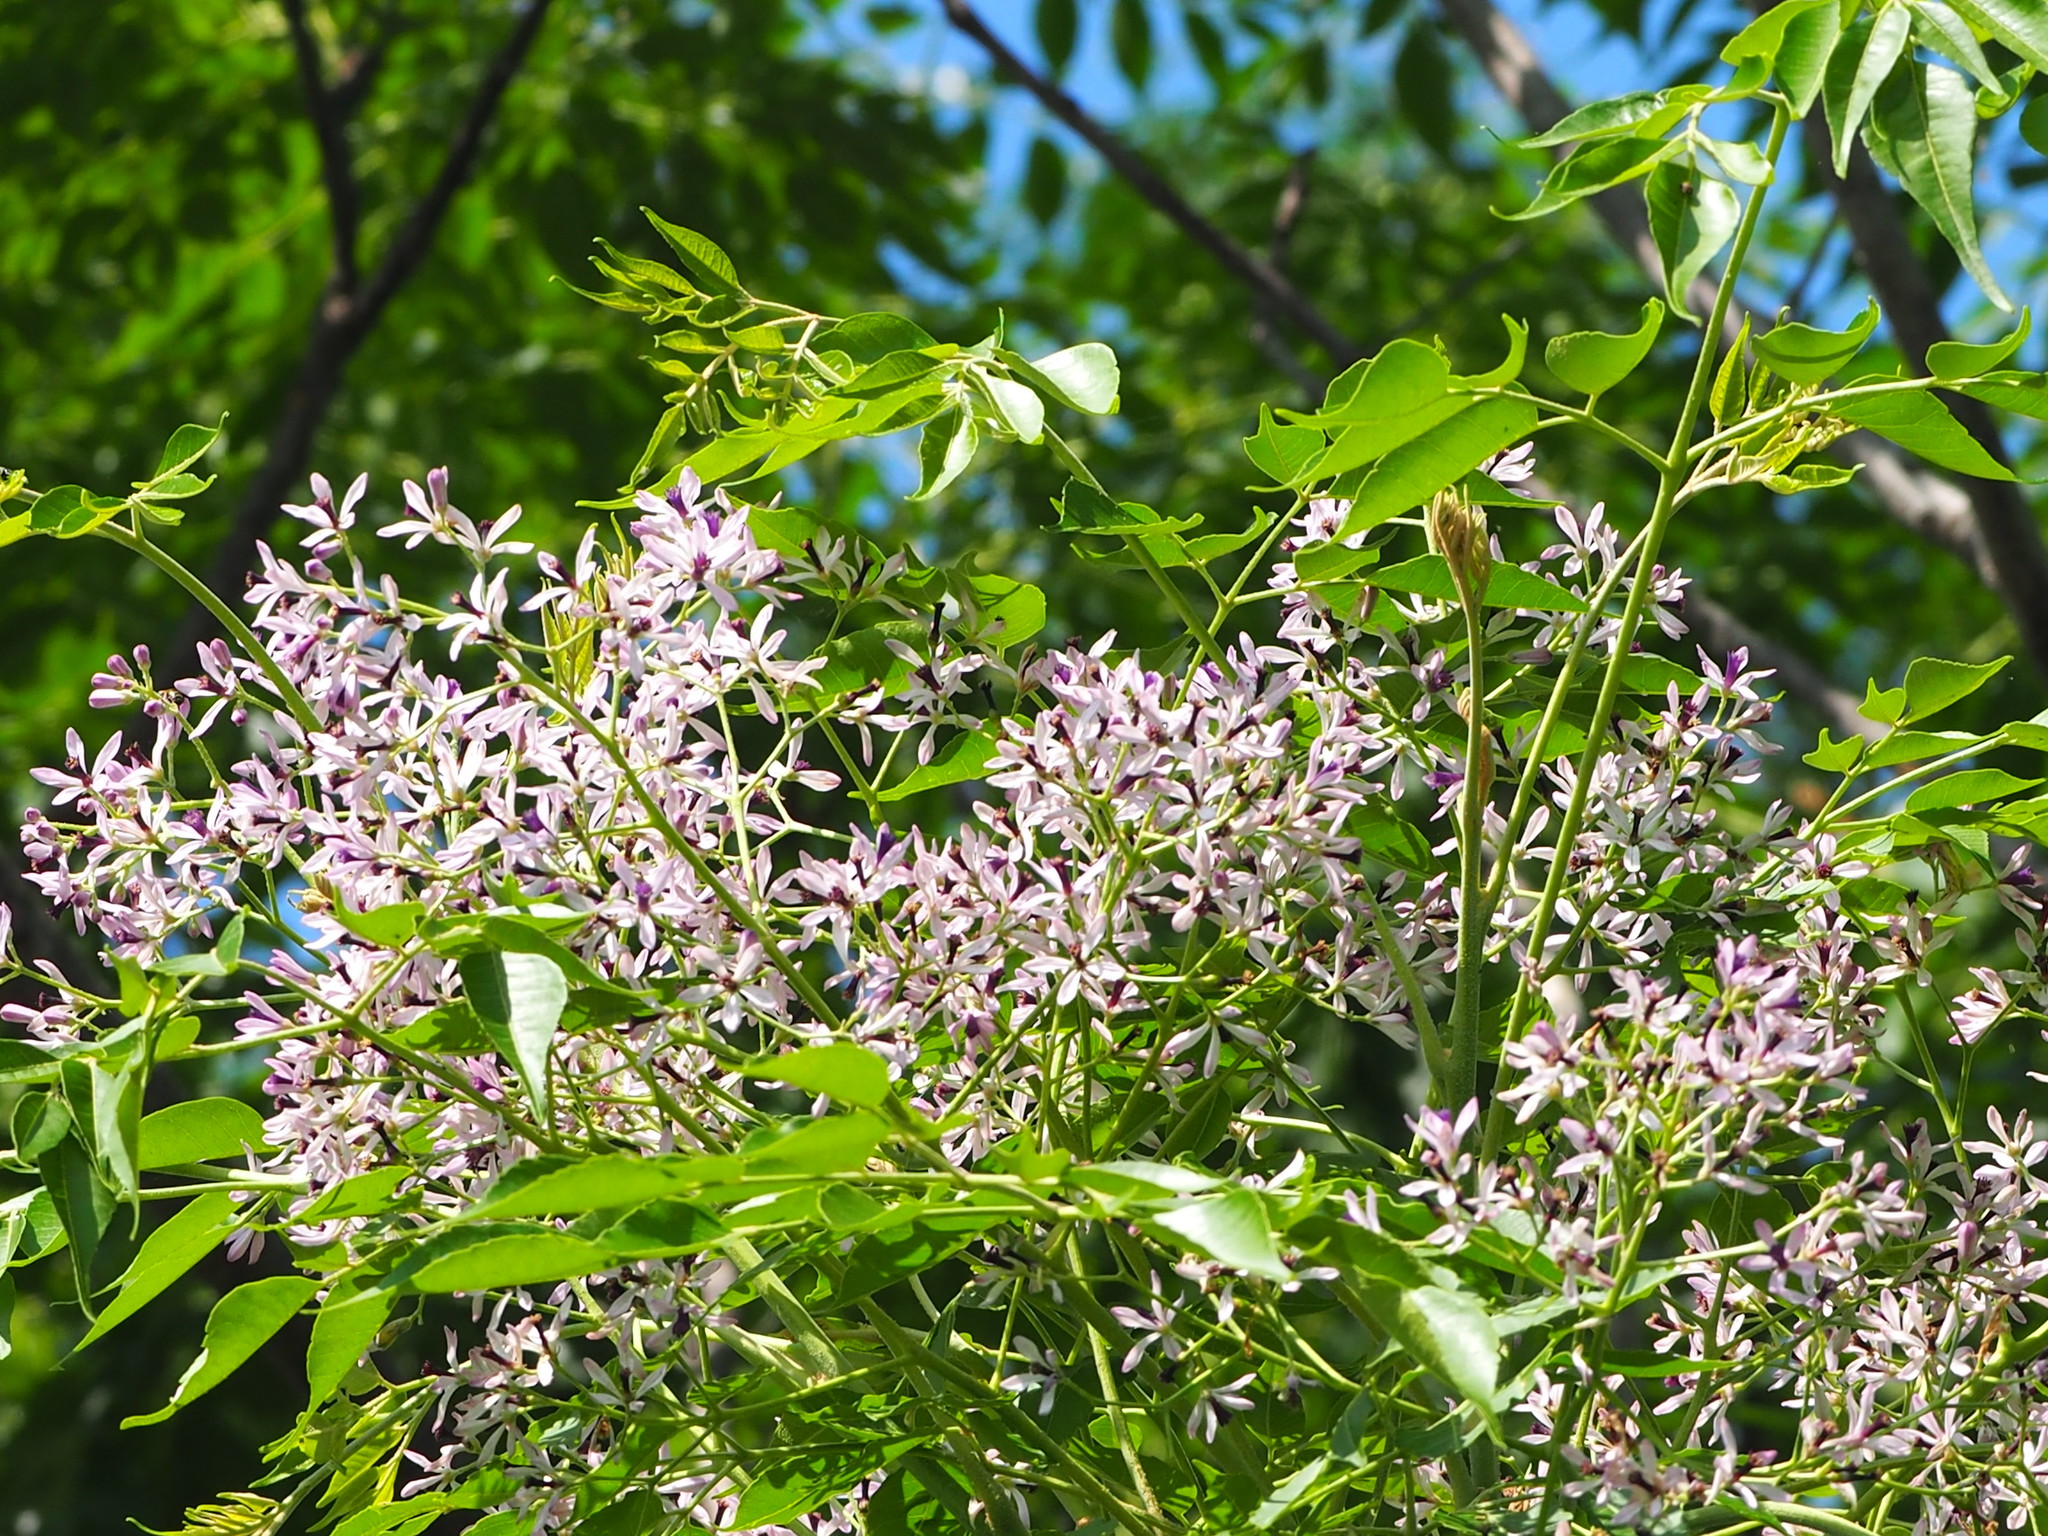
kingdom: Plantae
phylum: Tracheophyta
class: Magnoliopsida
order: Sapindales
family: Meliaceae
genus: Melia
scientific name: Melia azedarach
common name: Chinaberrytree
